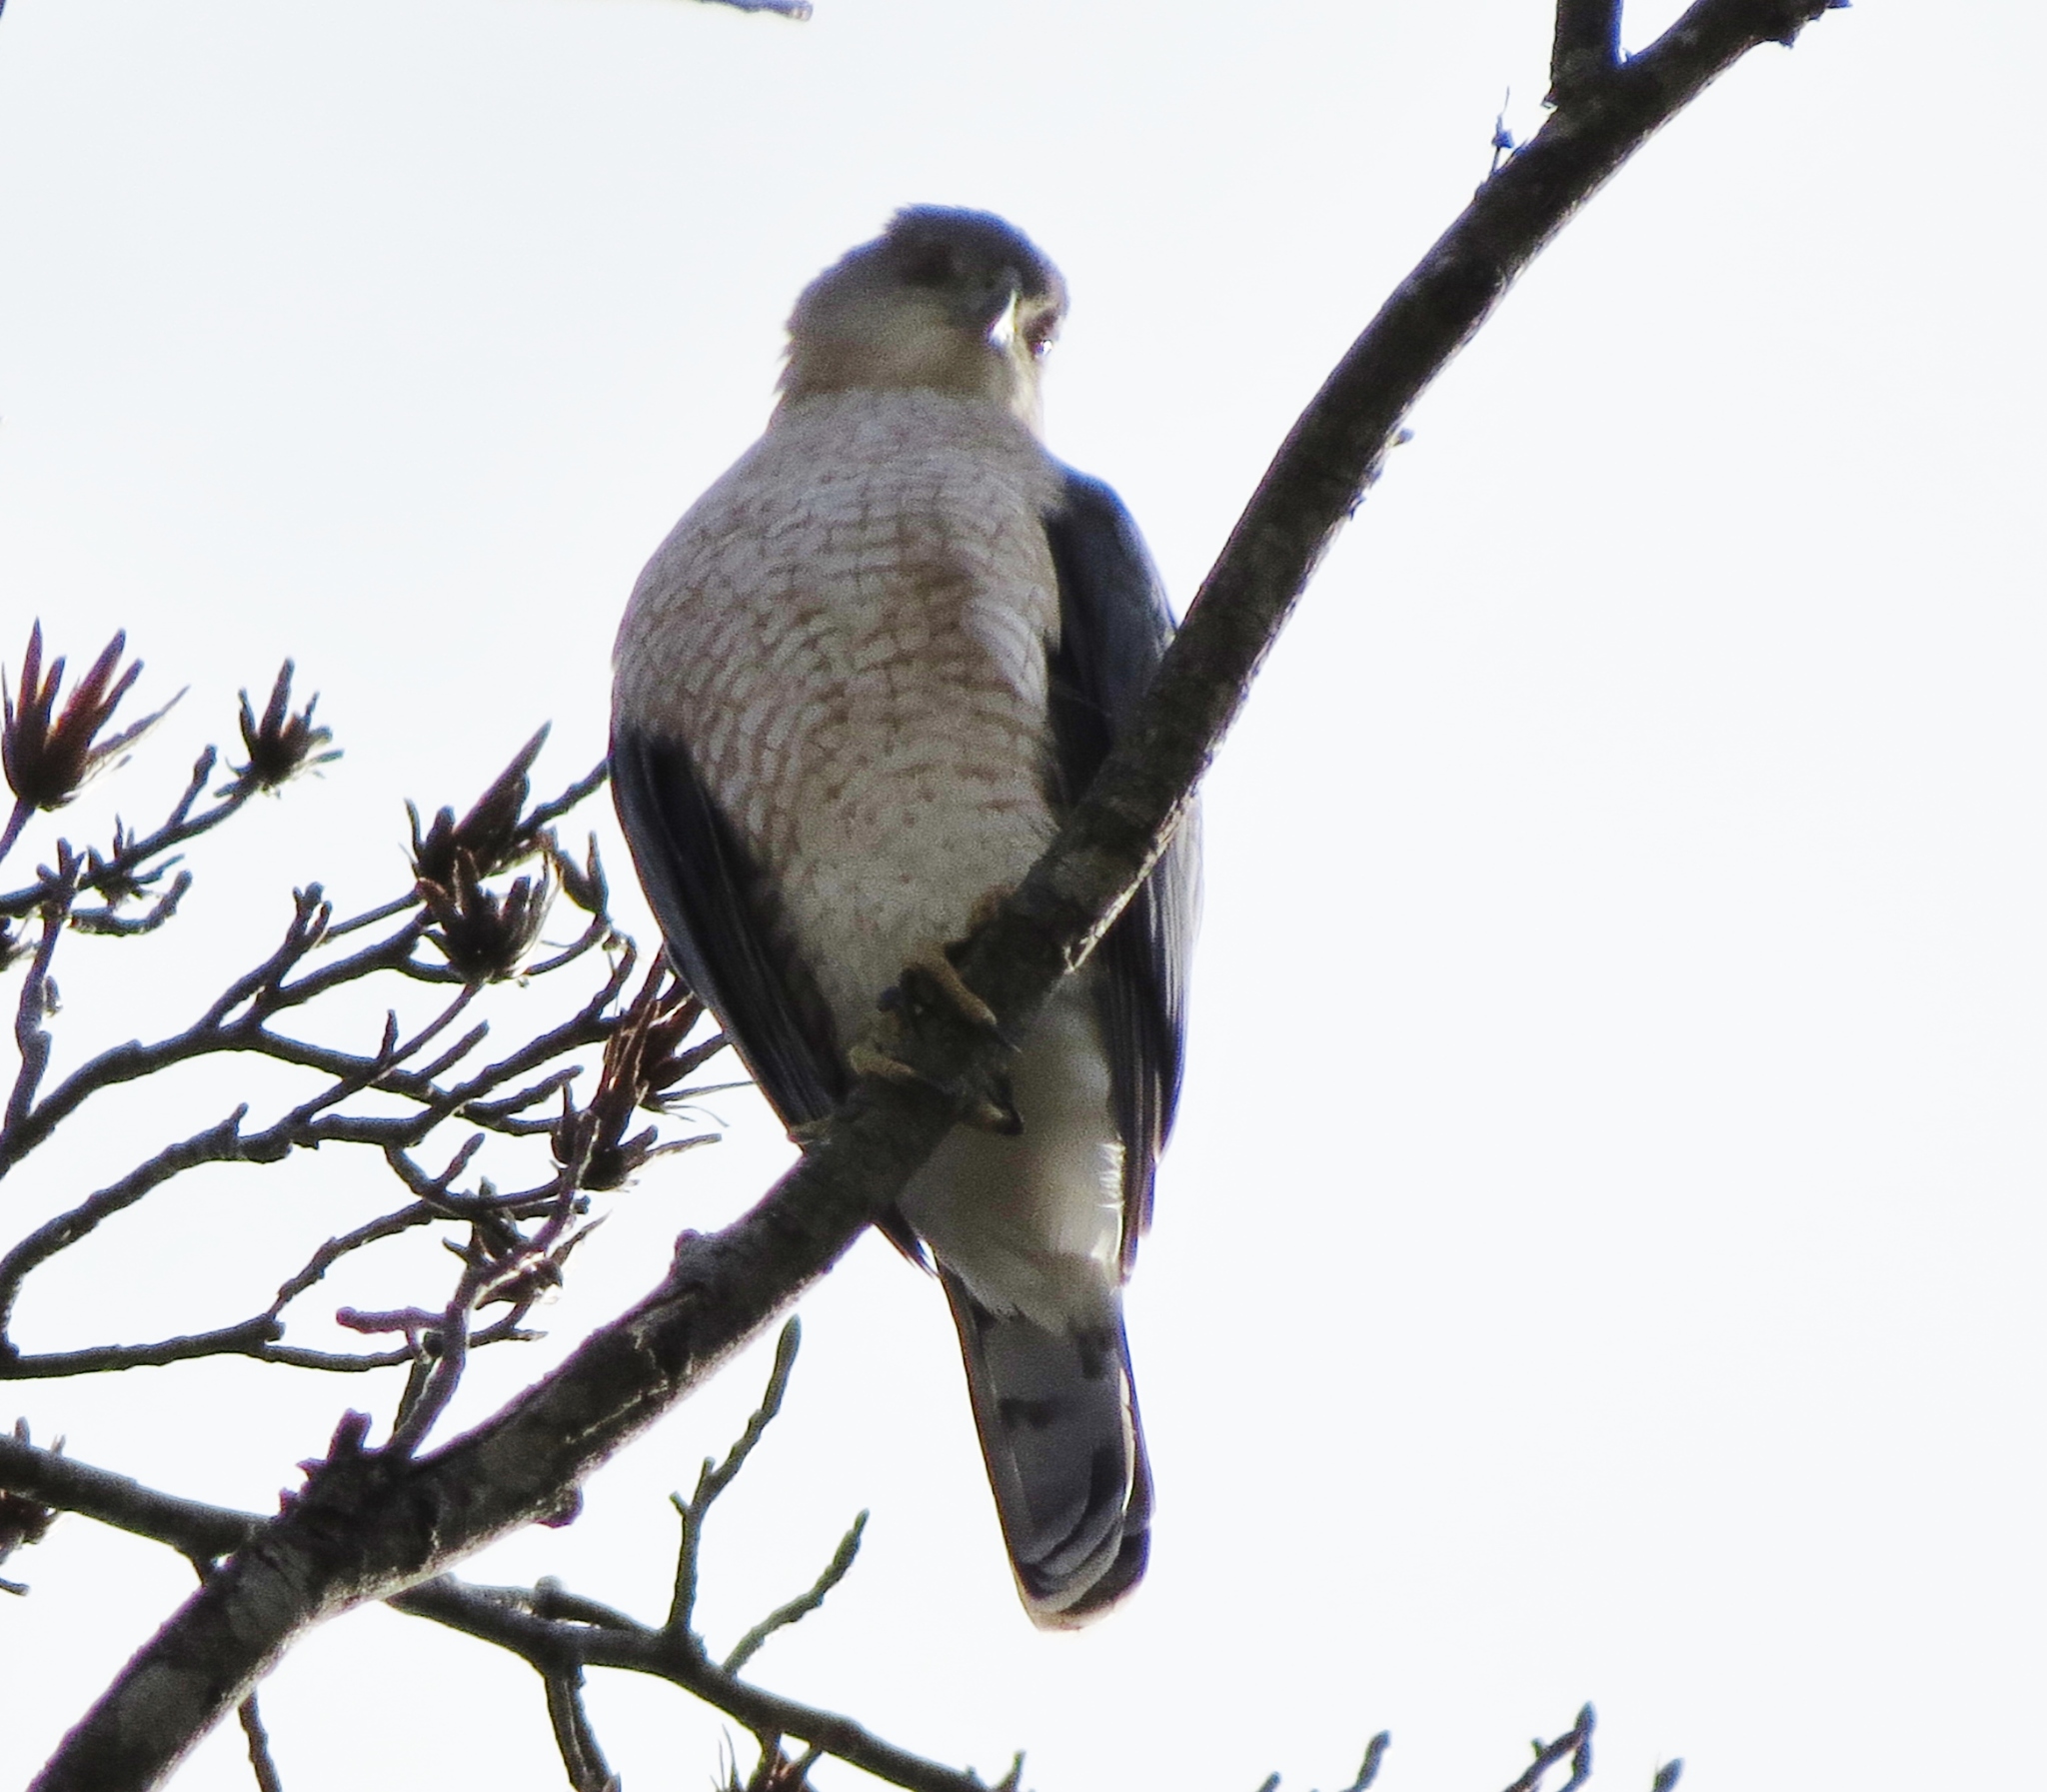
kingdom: Animalia
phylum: Chordata
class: Aves
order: Accipitriformes
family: Accipitridae
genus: Accipiter
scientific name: Accipiter cooperii
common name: Cooper's hawk
